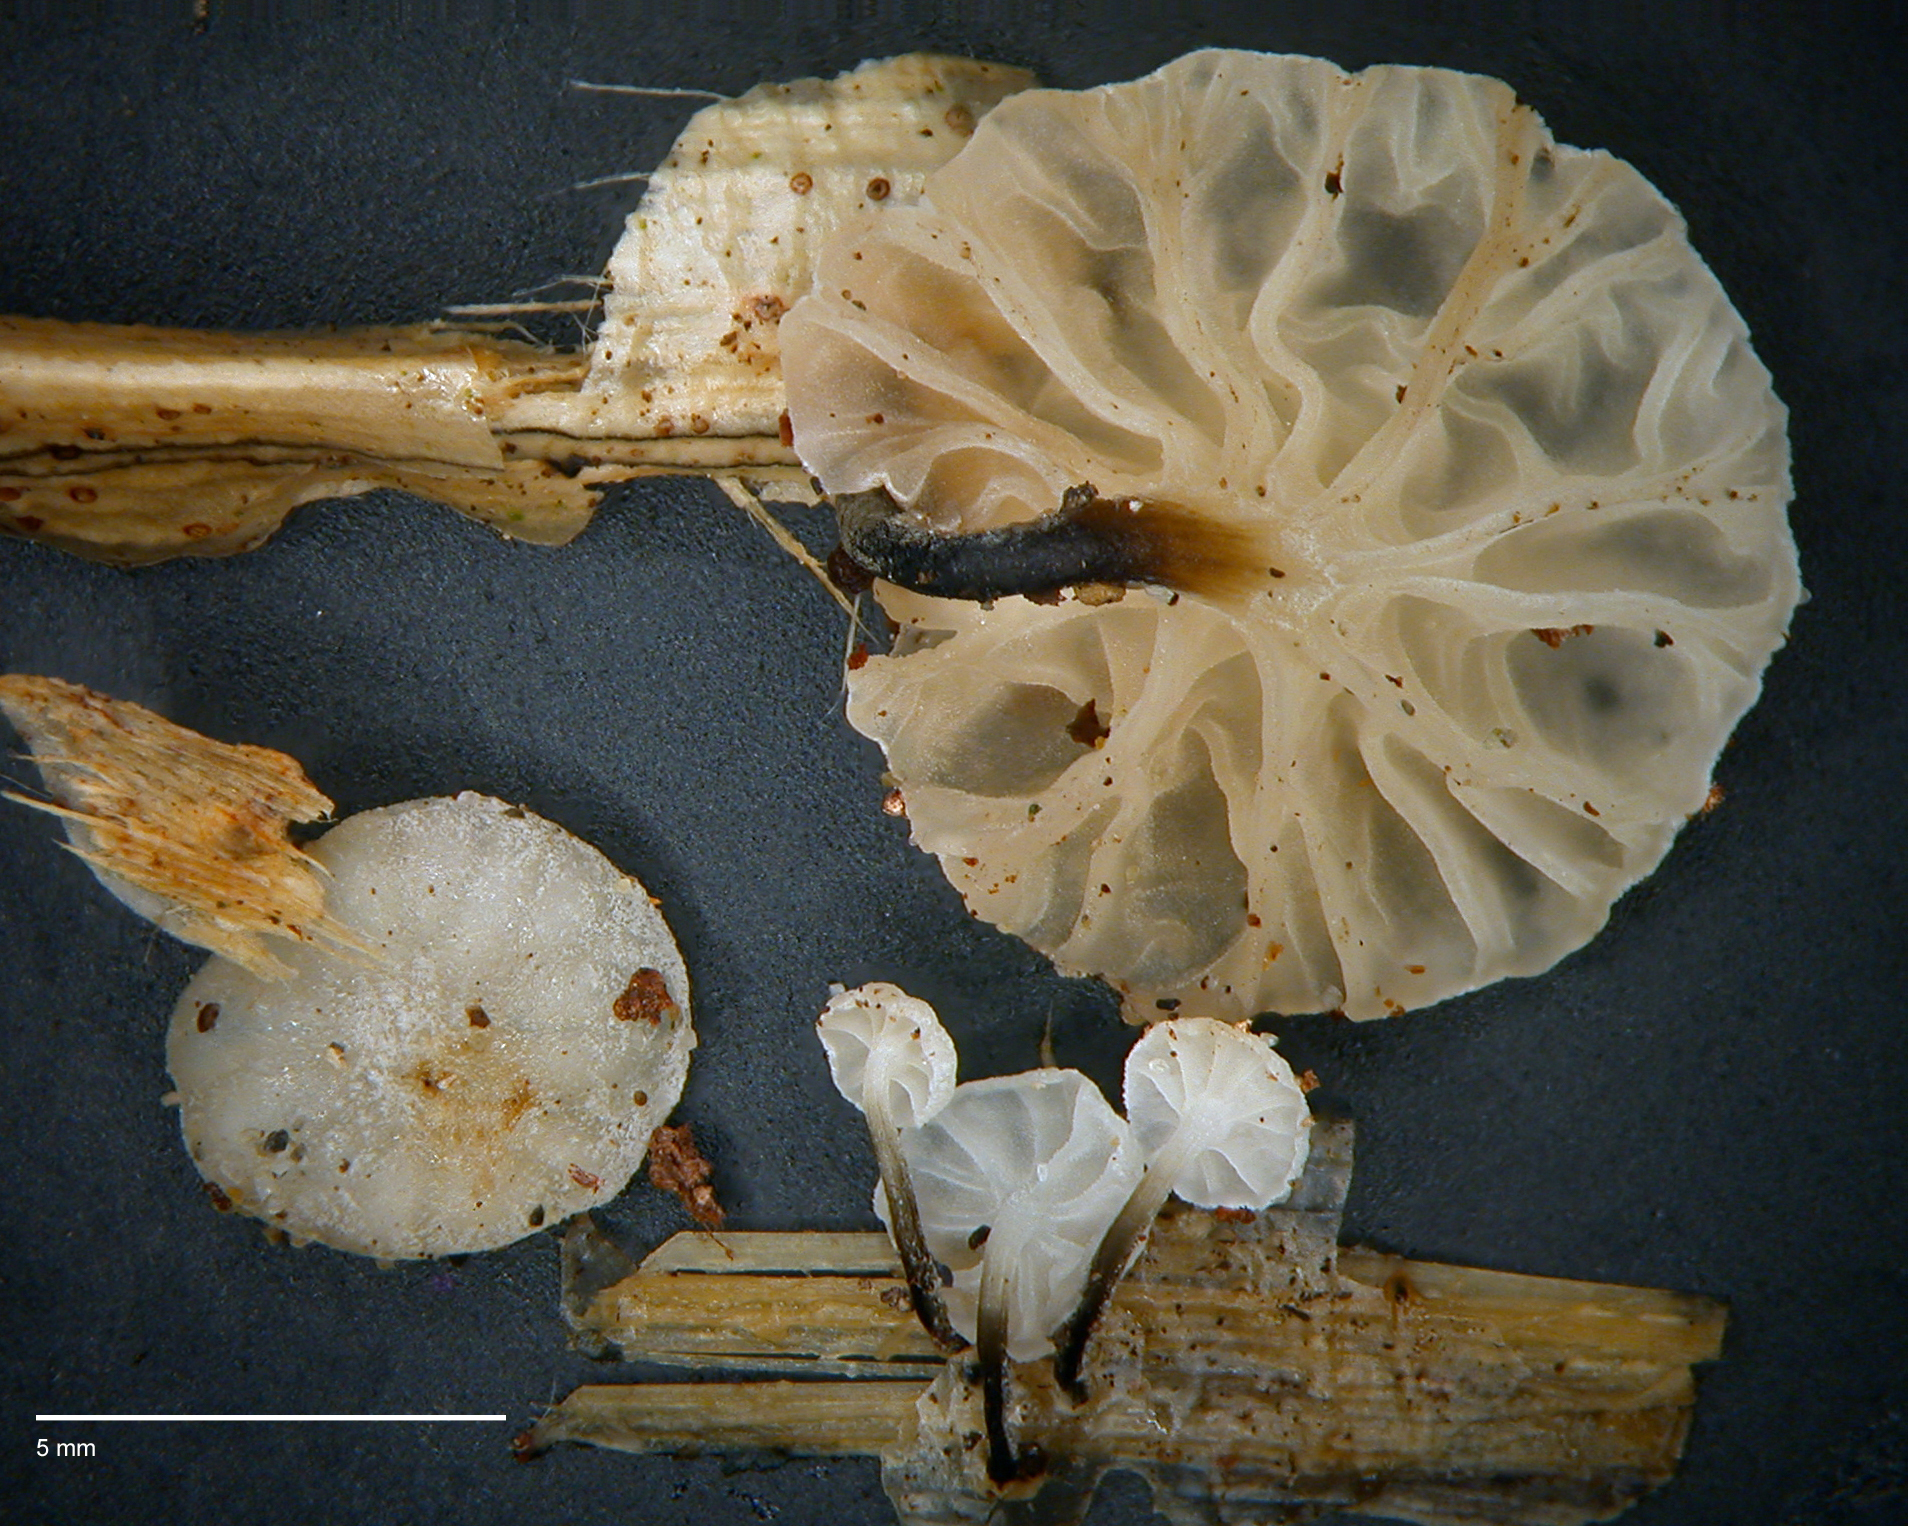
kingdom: Fungi
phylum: Basidiomycota
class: Agaricomycetes
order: Agaricales
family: Marasmiaceae
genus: Campanella
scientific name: Campanella
